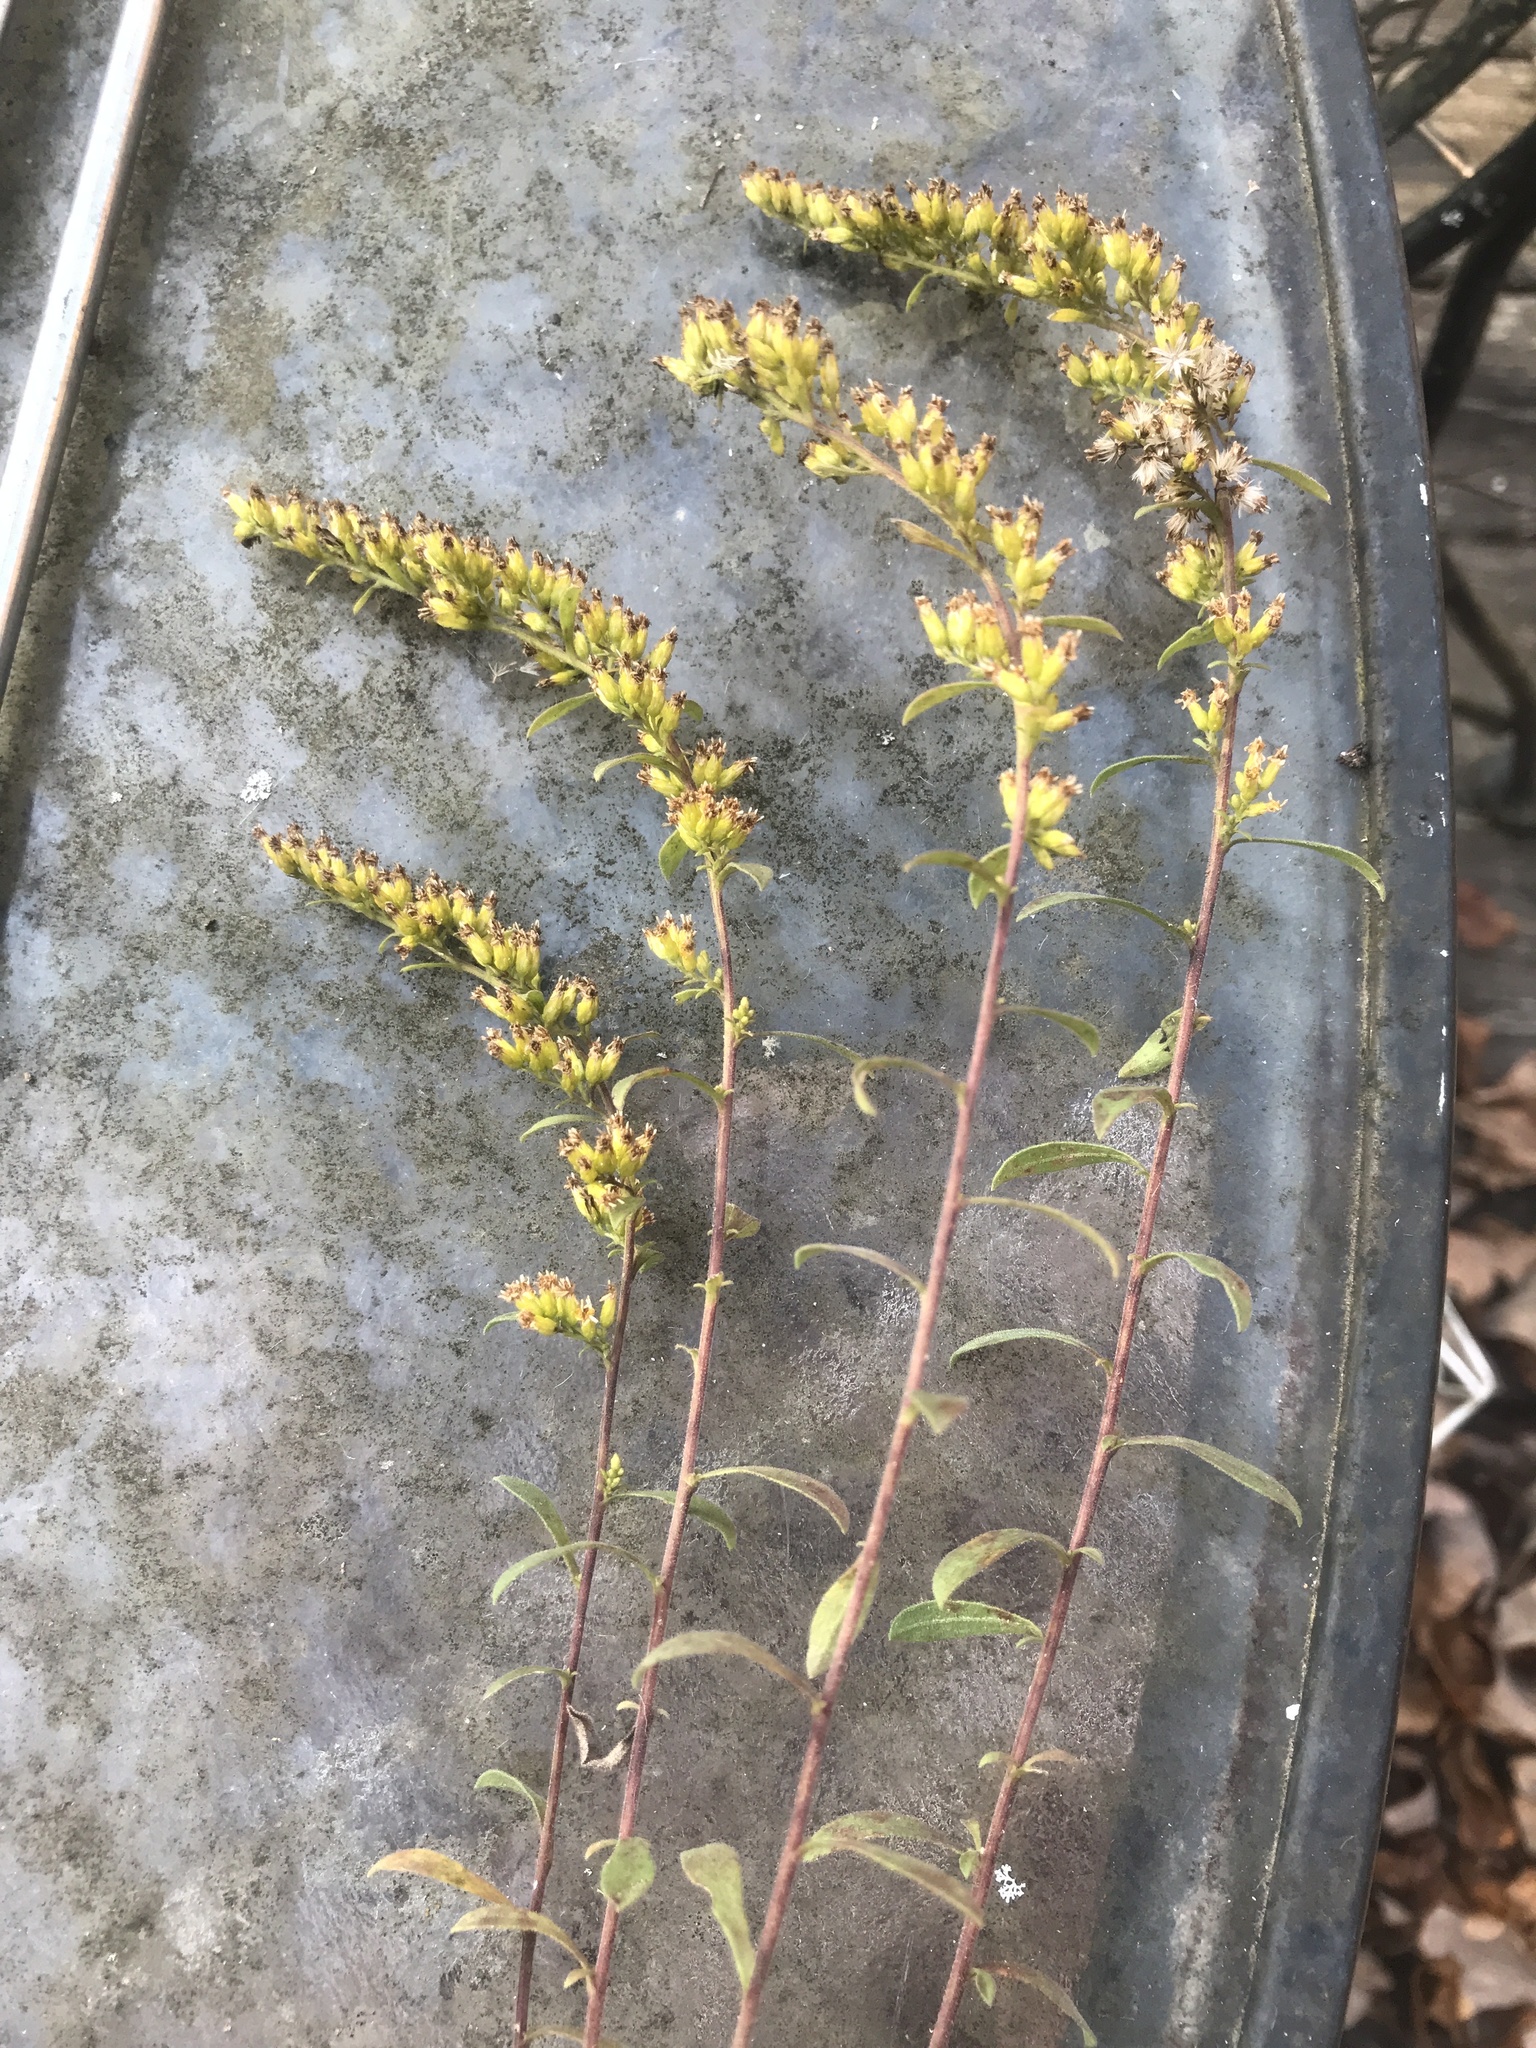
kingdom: Plantae
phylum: Tracheophyta
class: Magnoliopsida
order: Asterales
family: Asteraceae
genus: Solidago
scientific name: Solidago nemoralis
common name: Grey goldenrod
